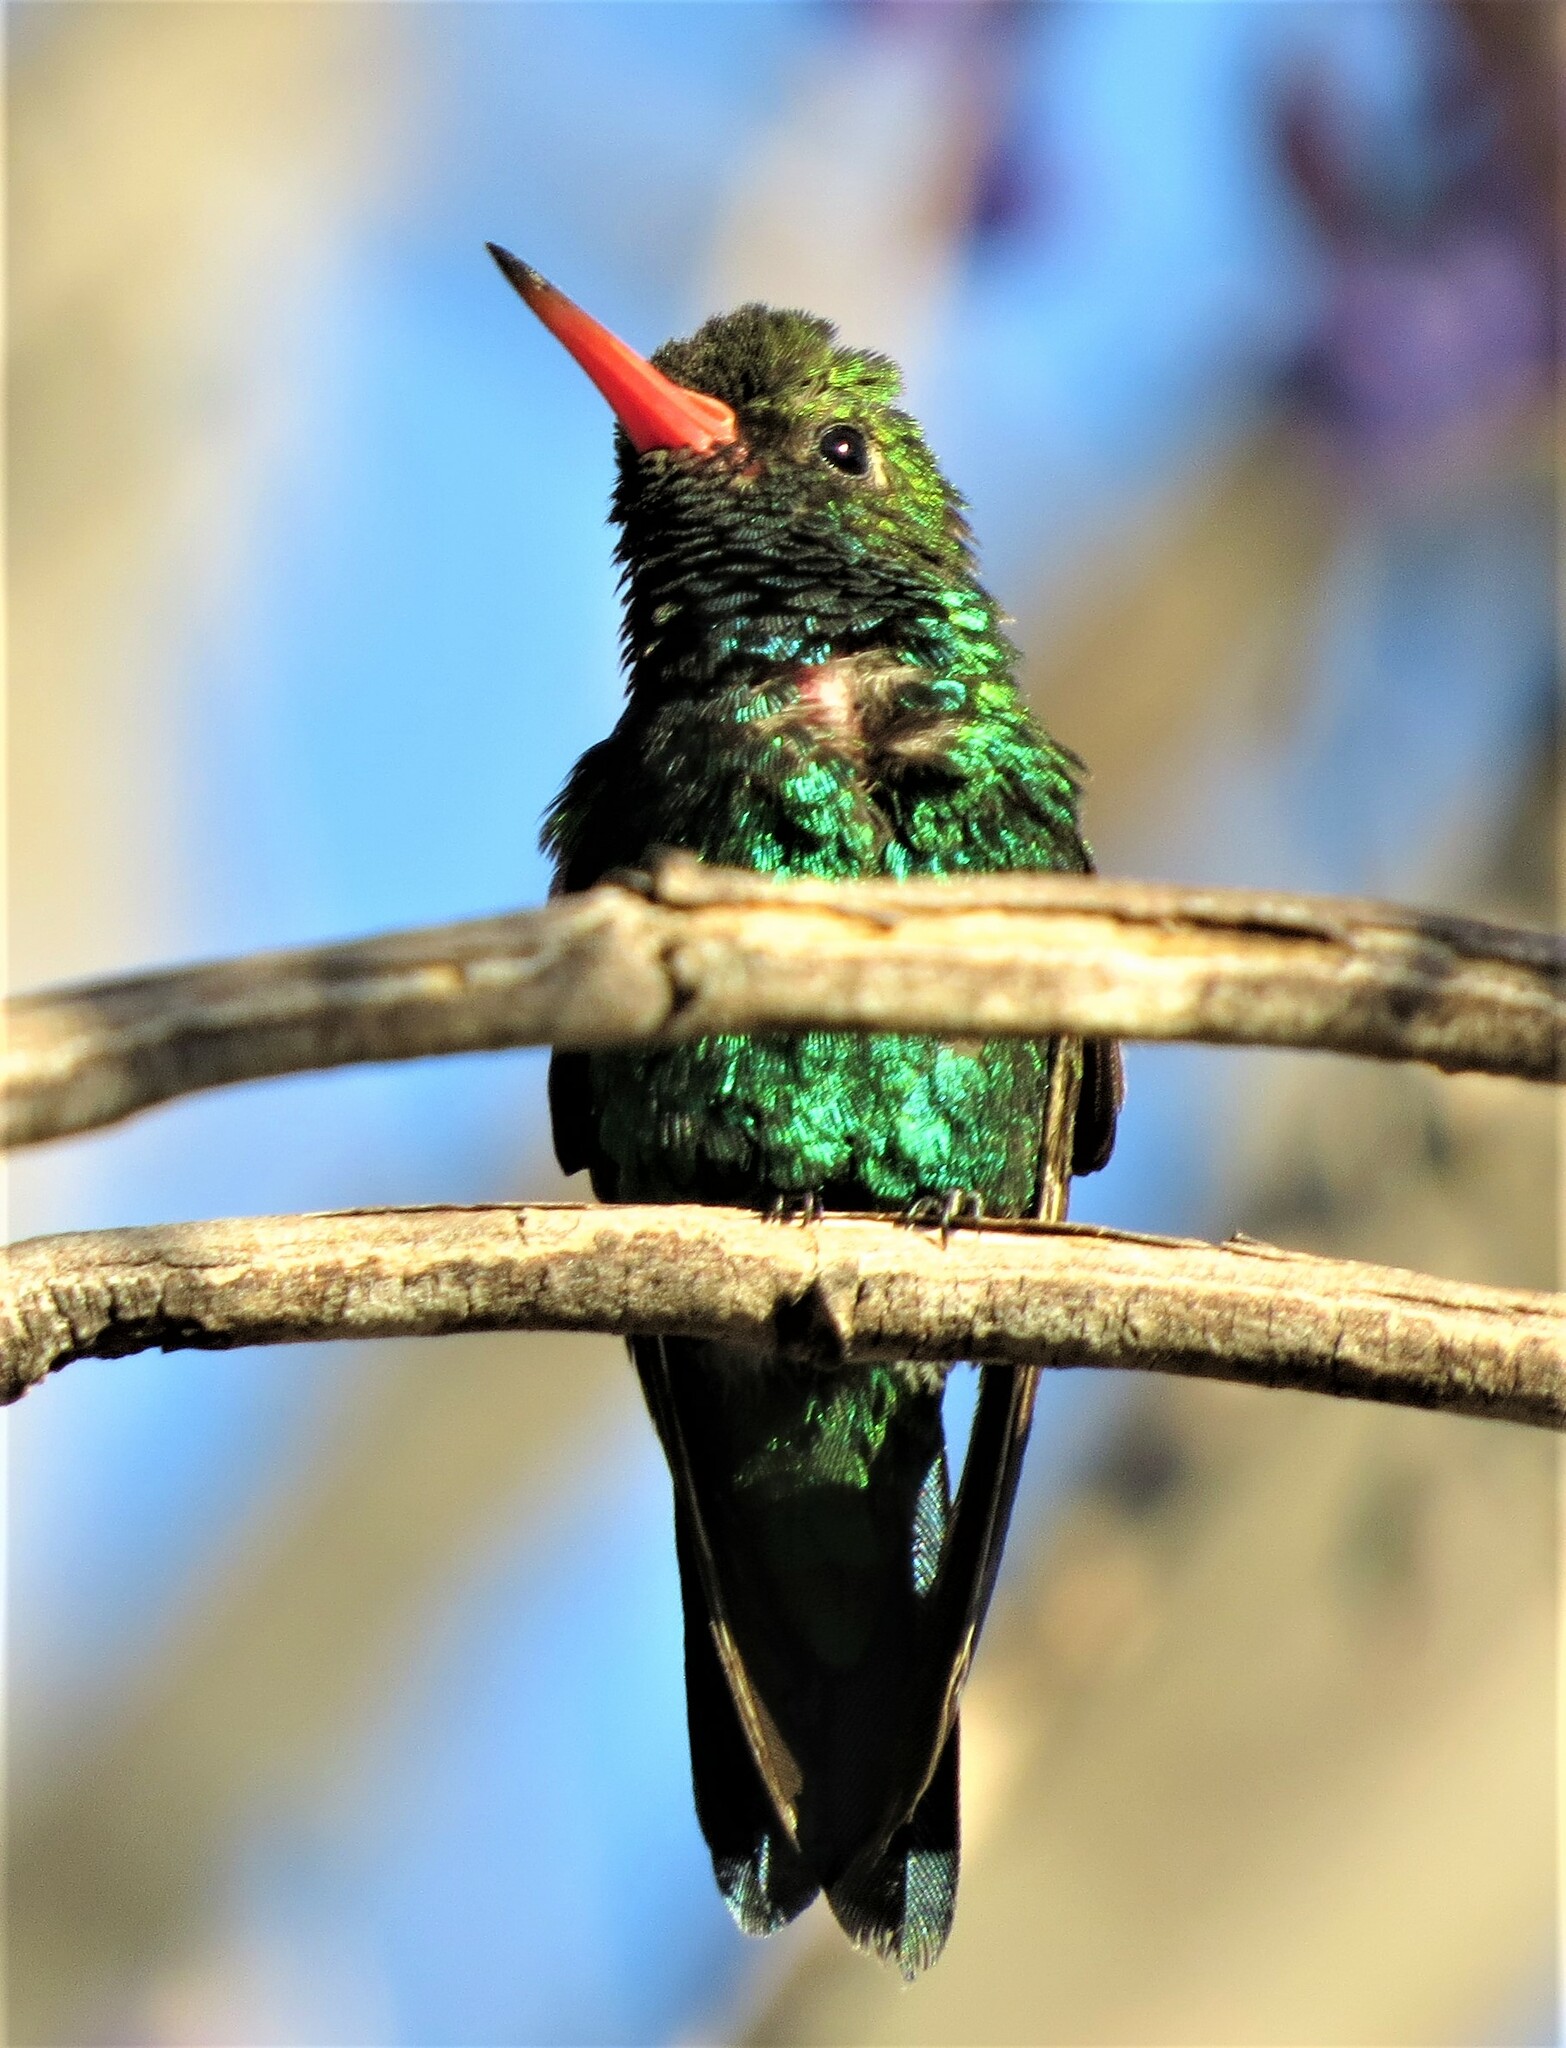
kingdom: Animalia
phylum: Chordata
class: Aves
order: Apodiformes
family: Trochilidae
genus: Chlorostilbon
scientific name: Chlorostilbon lucidus
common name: Glittering-bellied emerald
